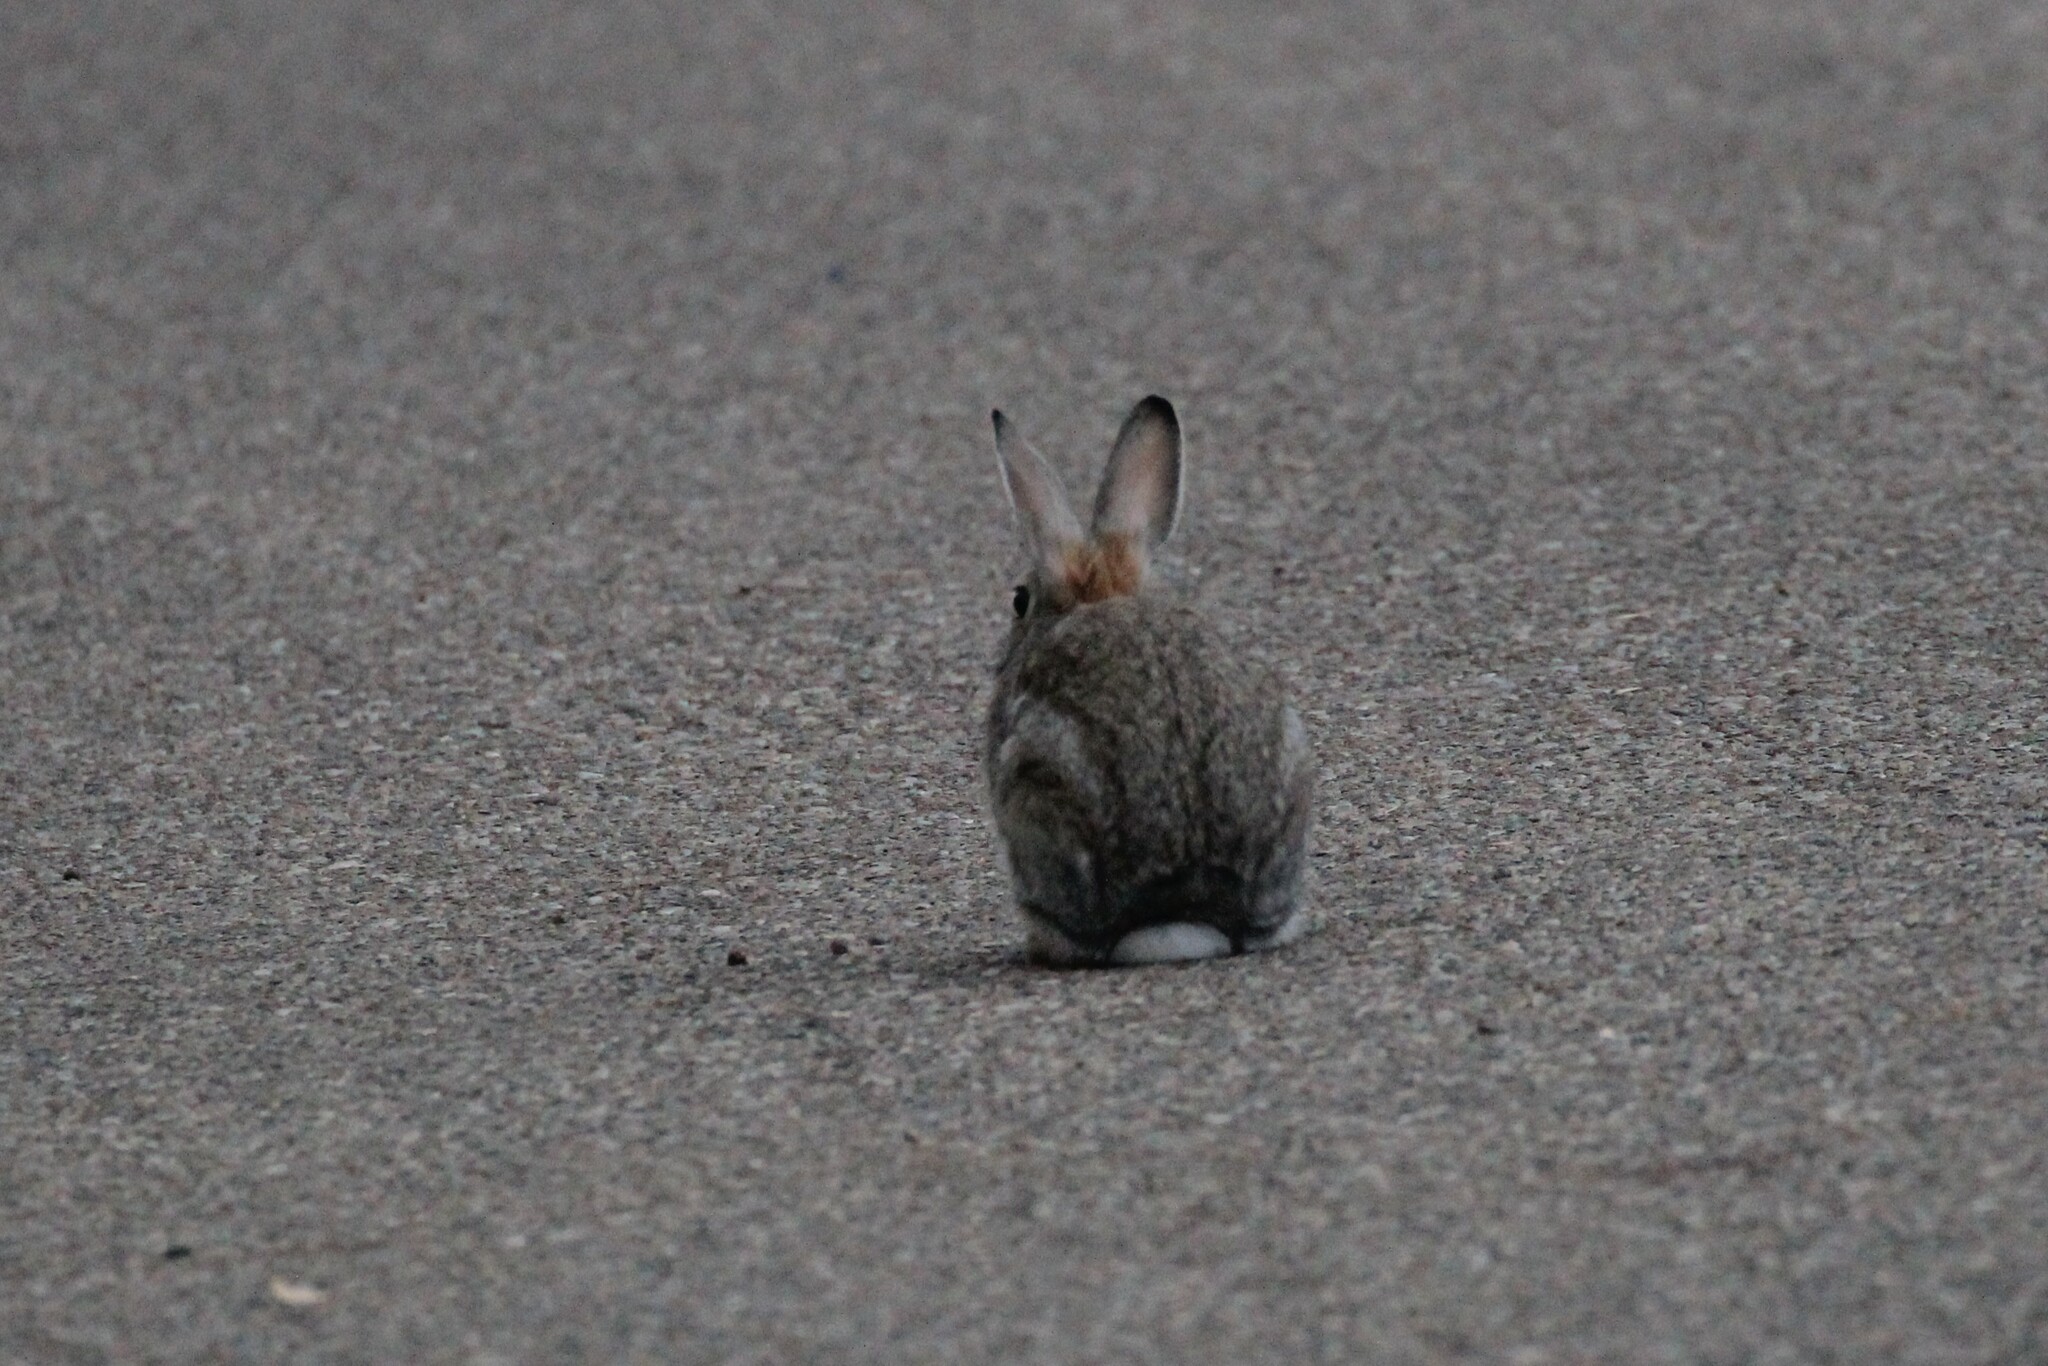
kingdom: Animalia
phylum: Chordata
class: Mammalia
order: Lagomorpha
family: Leporidae
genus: Sylvilagus
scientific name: Sylvilagus nuttallii
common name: Mountain cottontail
